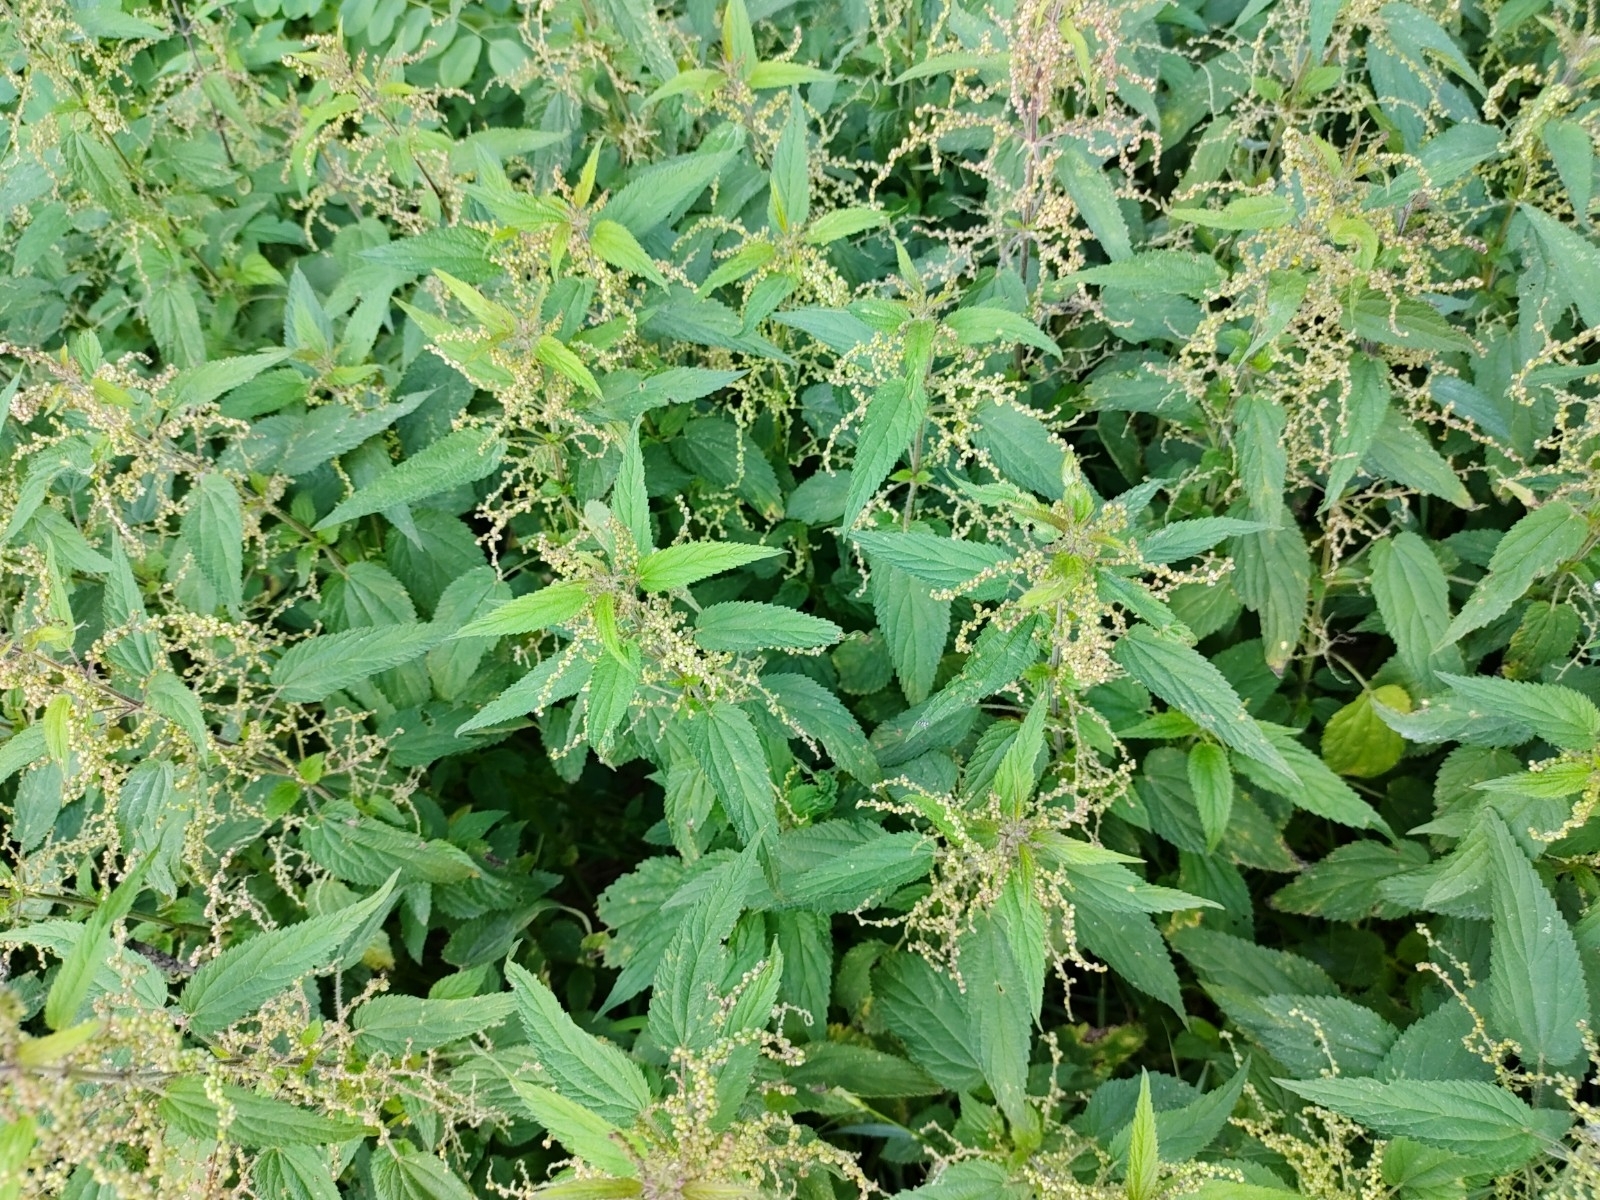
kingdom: Plantae
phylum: Tracheophyta
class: Magnoliopsida
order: Rosales
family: Urticaceae
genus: Urtica
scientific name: Urtica dioica
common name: Common nettle
